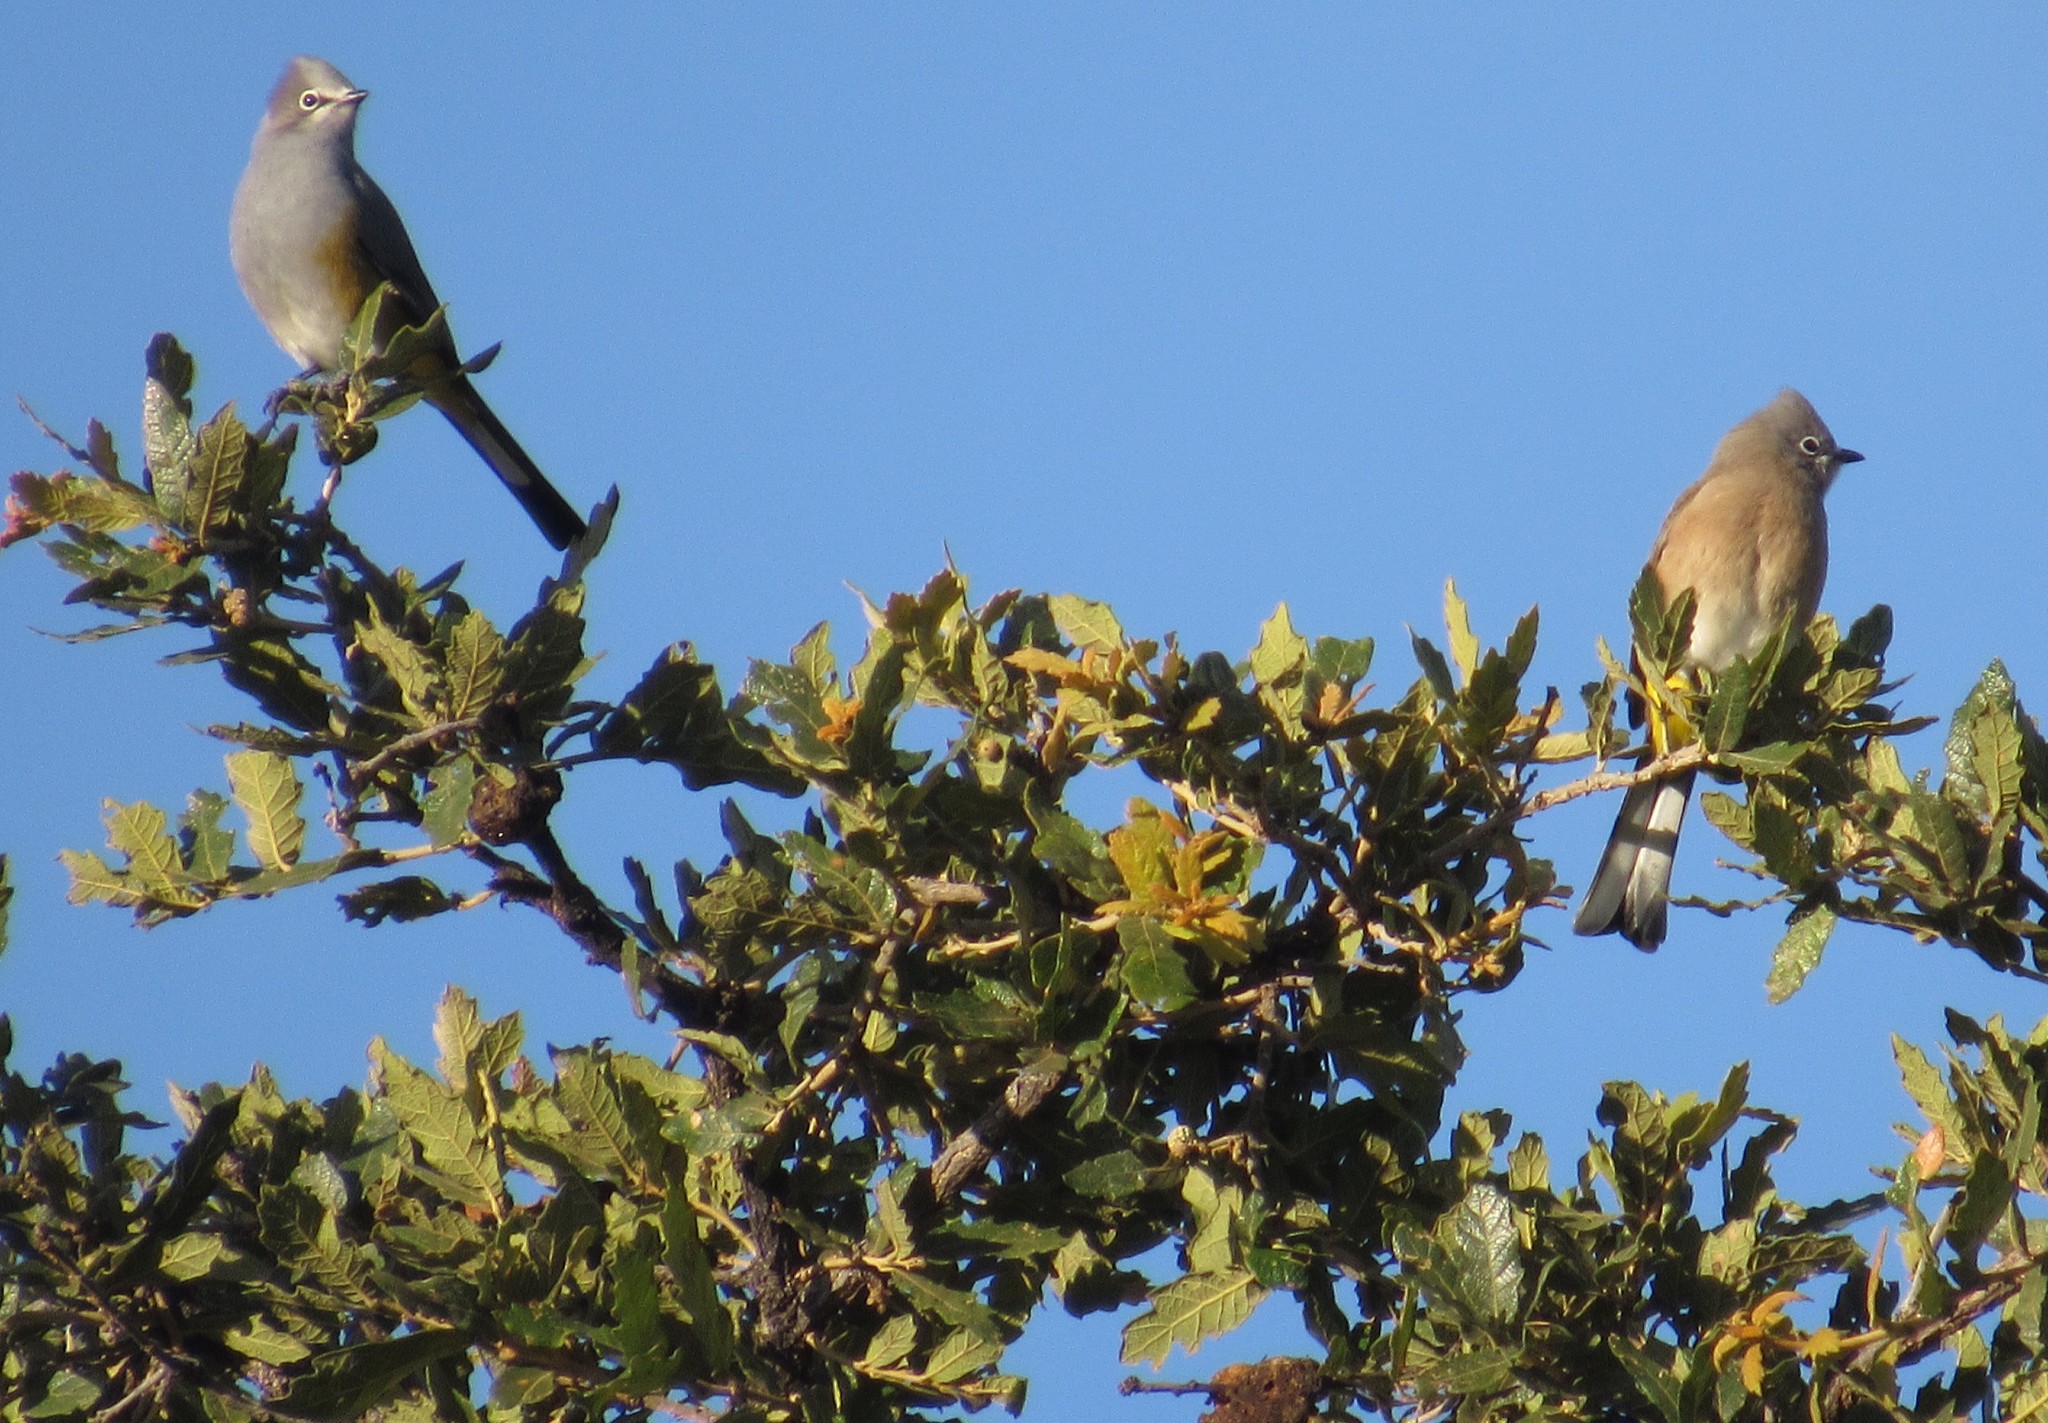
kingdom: Animalia
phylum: Chordata
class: Aves
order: Passeriformes
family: Ptilogonatidae
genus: Ptilogonys
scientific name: Ptilogonys cinereus
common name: Gray silky-flycatcher
